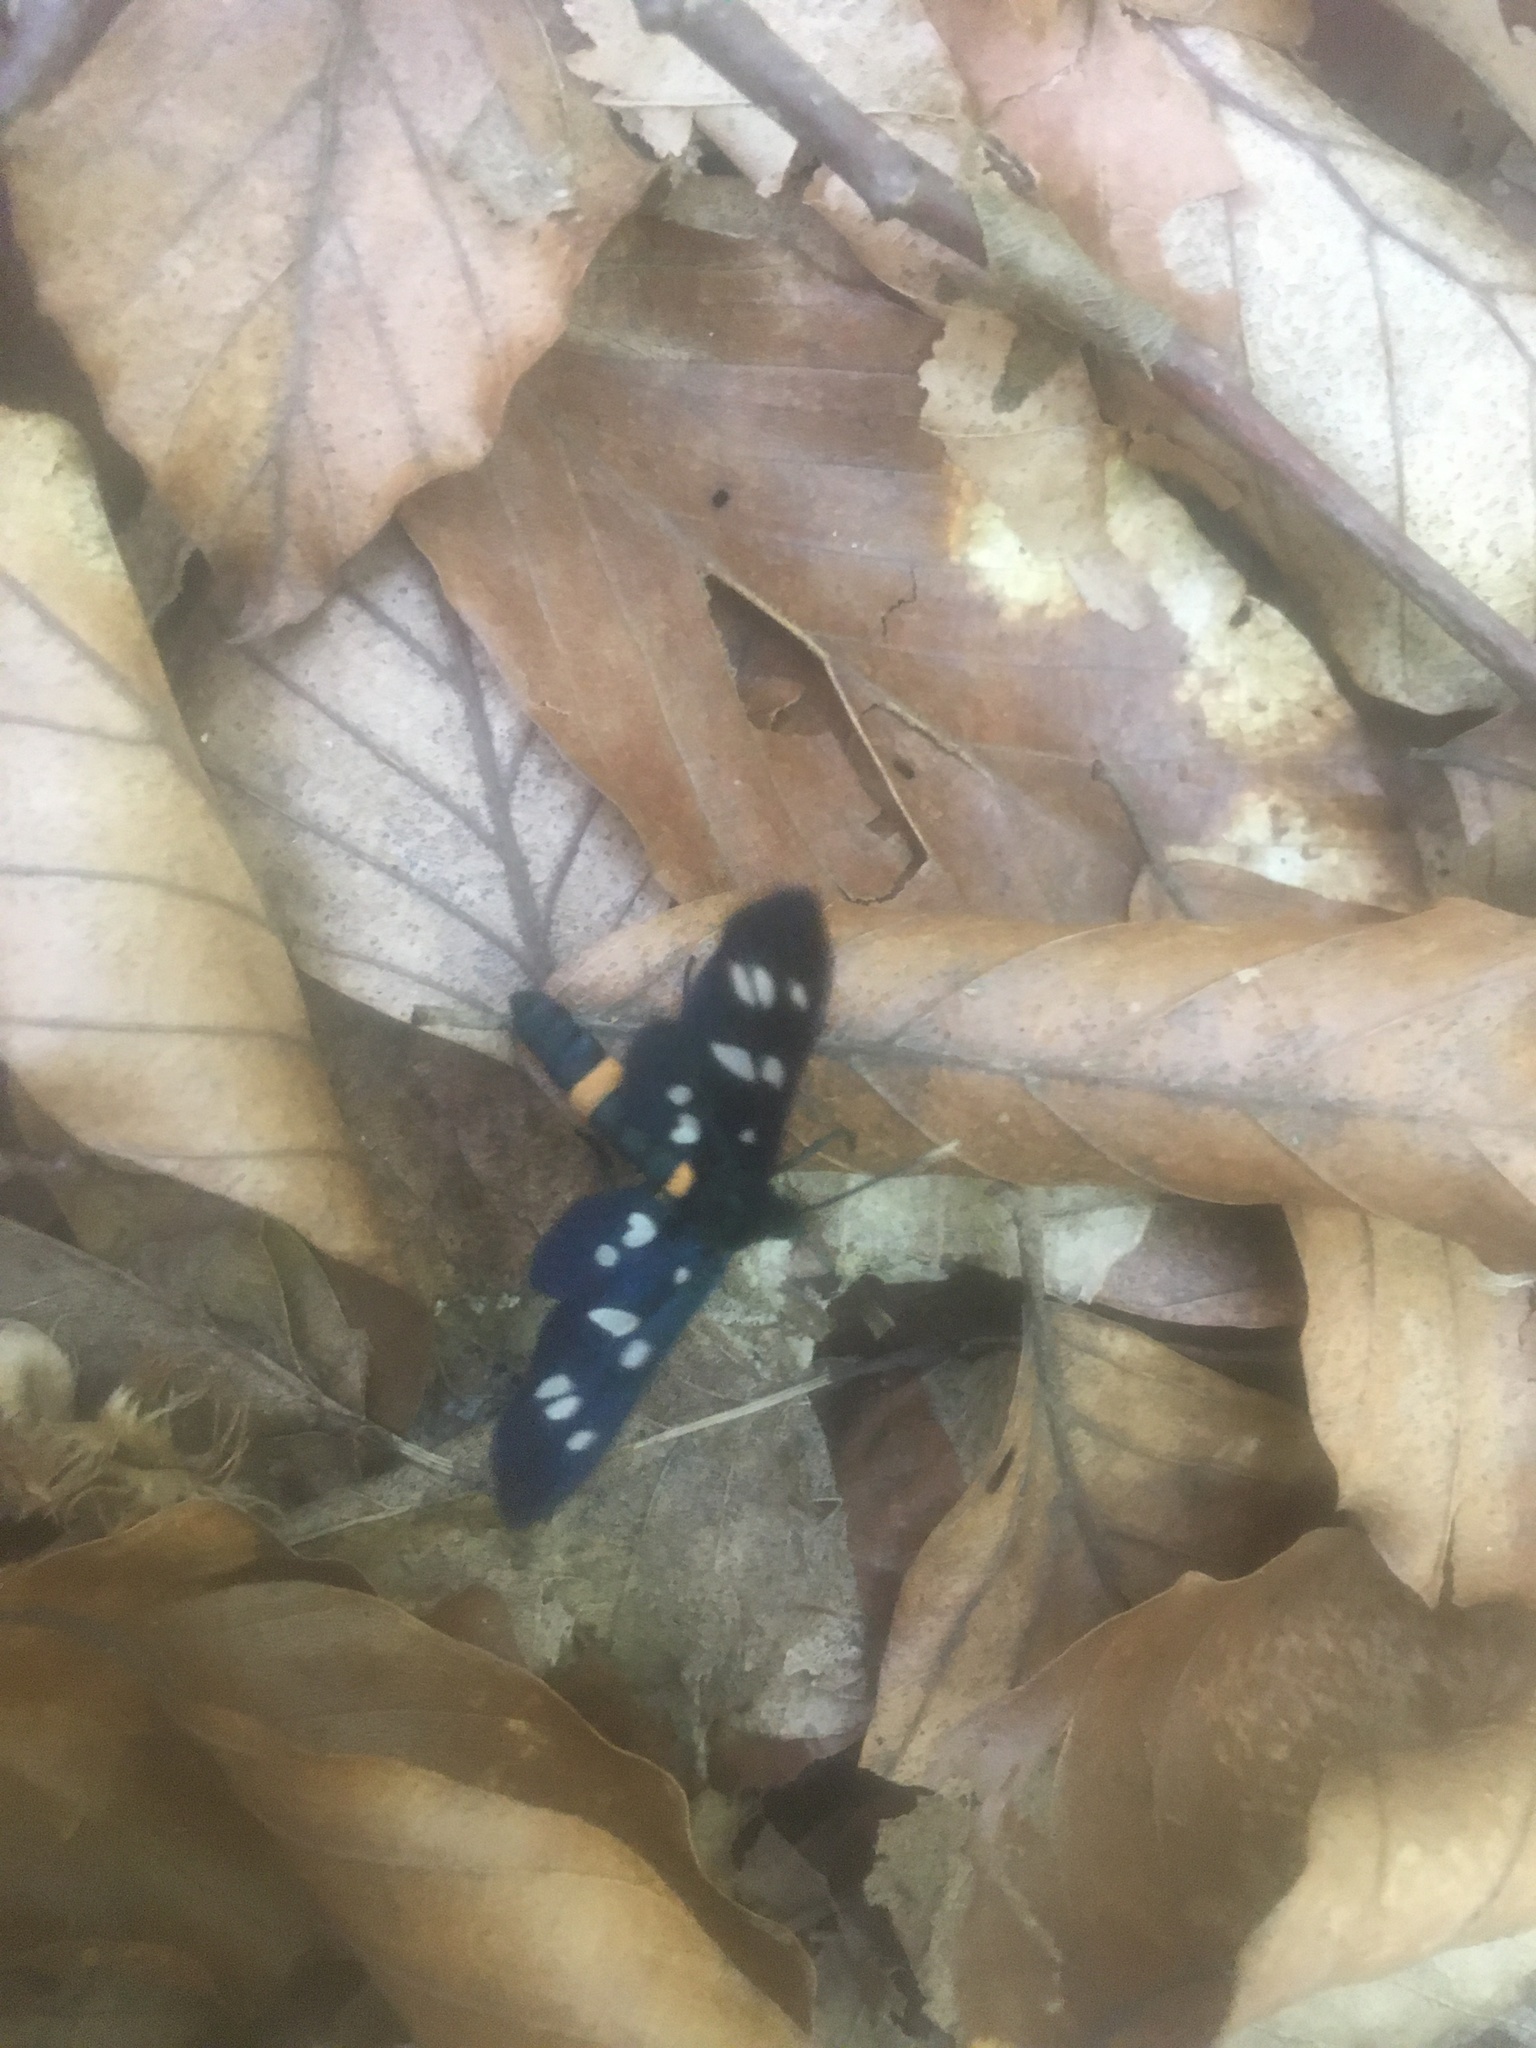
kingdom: Animalia
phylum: Arthropoda
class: Insecta
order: Lepidoptera
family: Erebidae
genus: Amata
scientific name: Amata nigricornis
